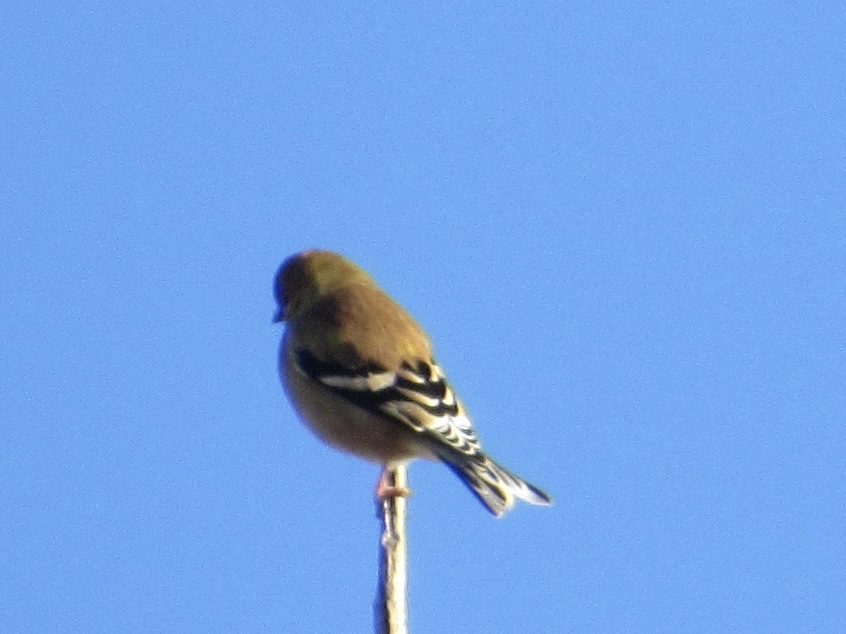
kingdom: Animalia
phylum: Chordata
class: Aves
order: Passeriformes
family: Fringillidae
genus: Spinus
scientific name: Spinus tristis
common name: American goldfinch
